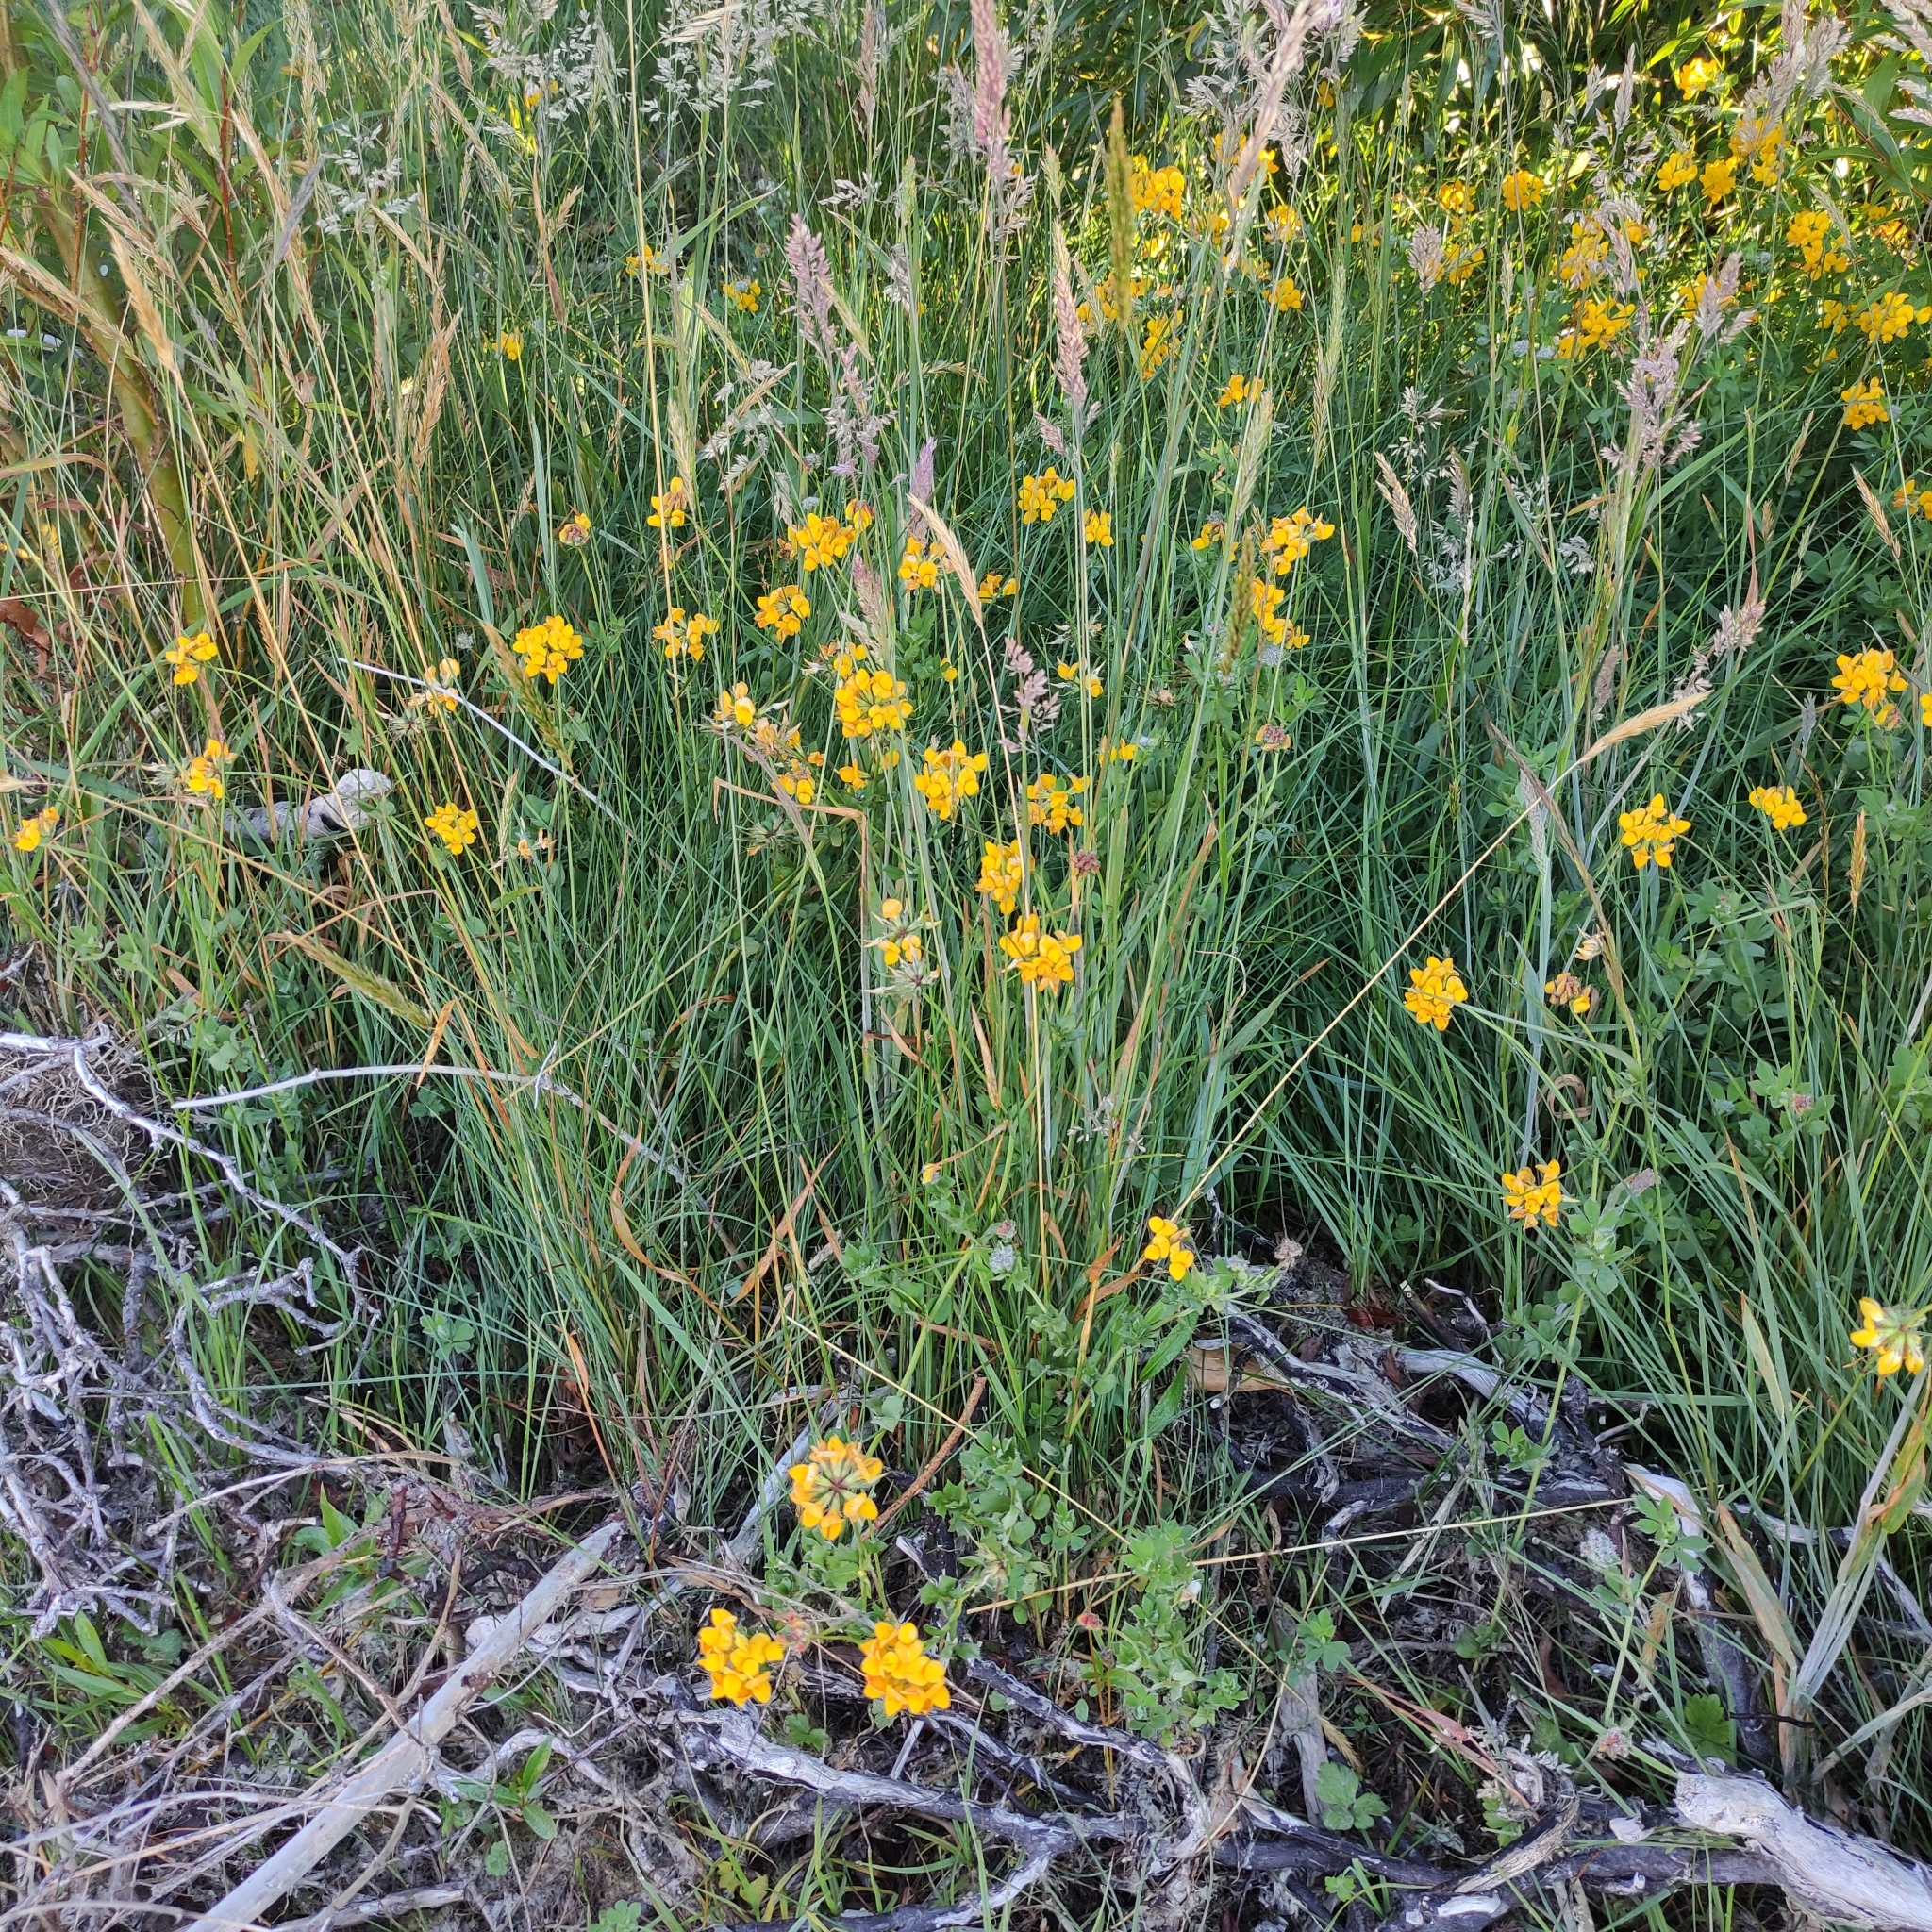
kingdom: Plantae
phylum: Tracheophyta
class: Magnoliopsida
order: Fabales
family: Fabaceae
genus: Lotus
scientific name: Lotus pedunculatus
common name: Greater birdsfoot-trefoil
